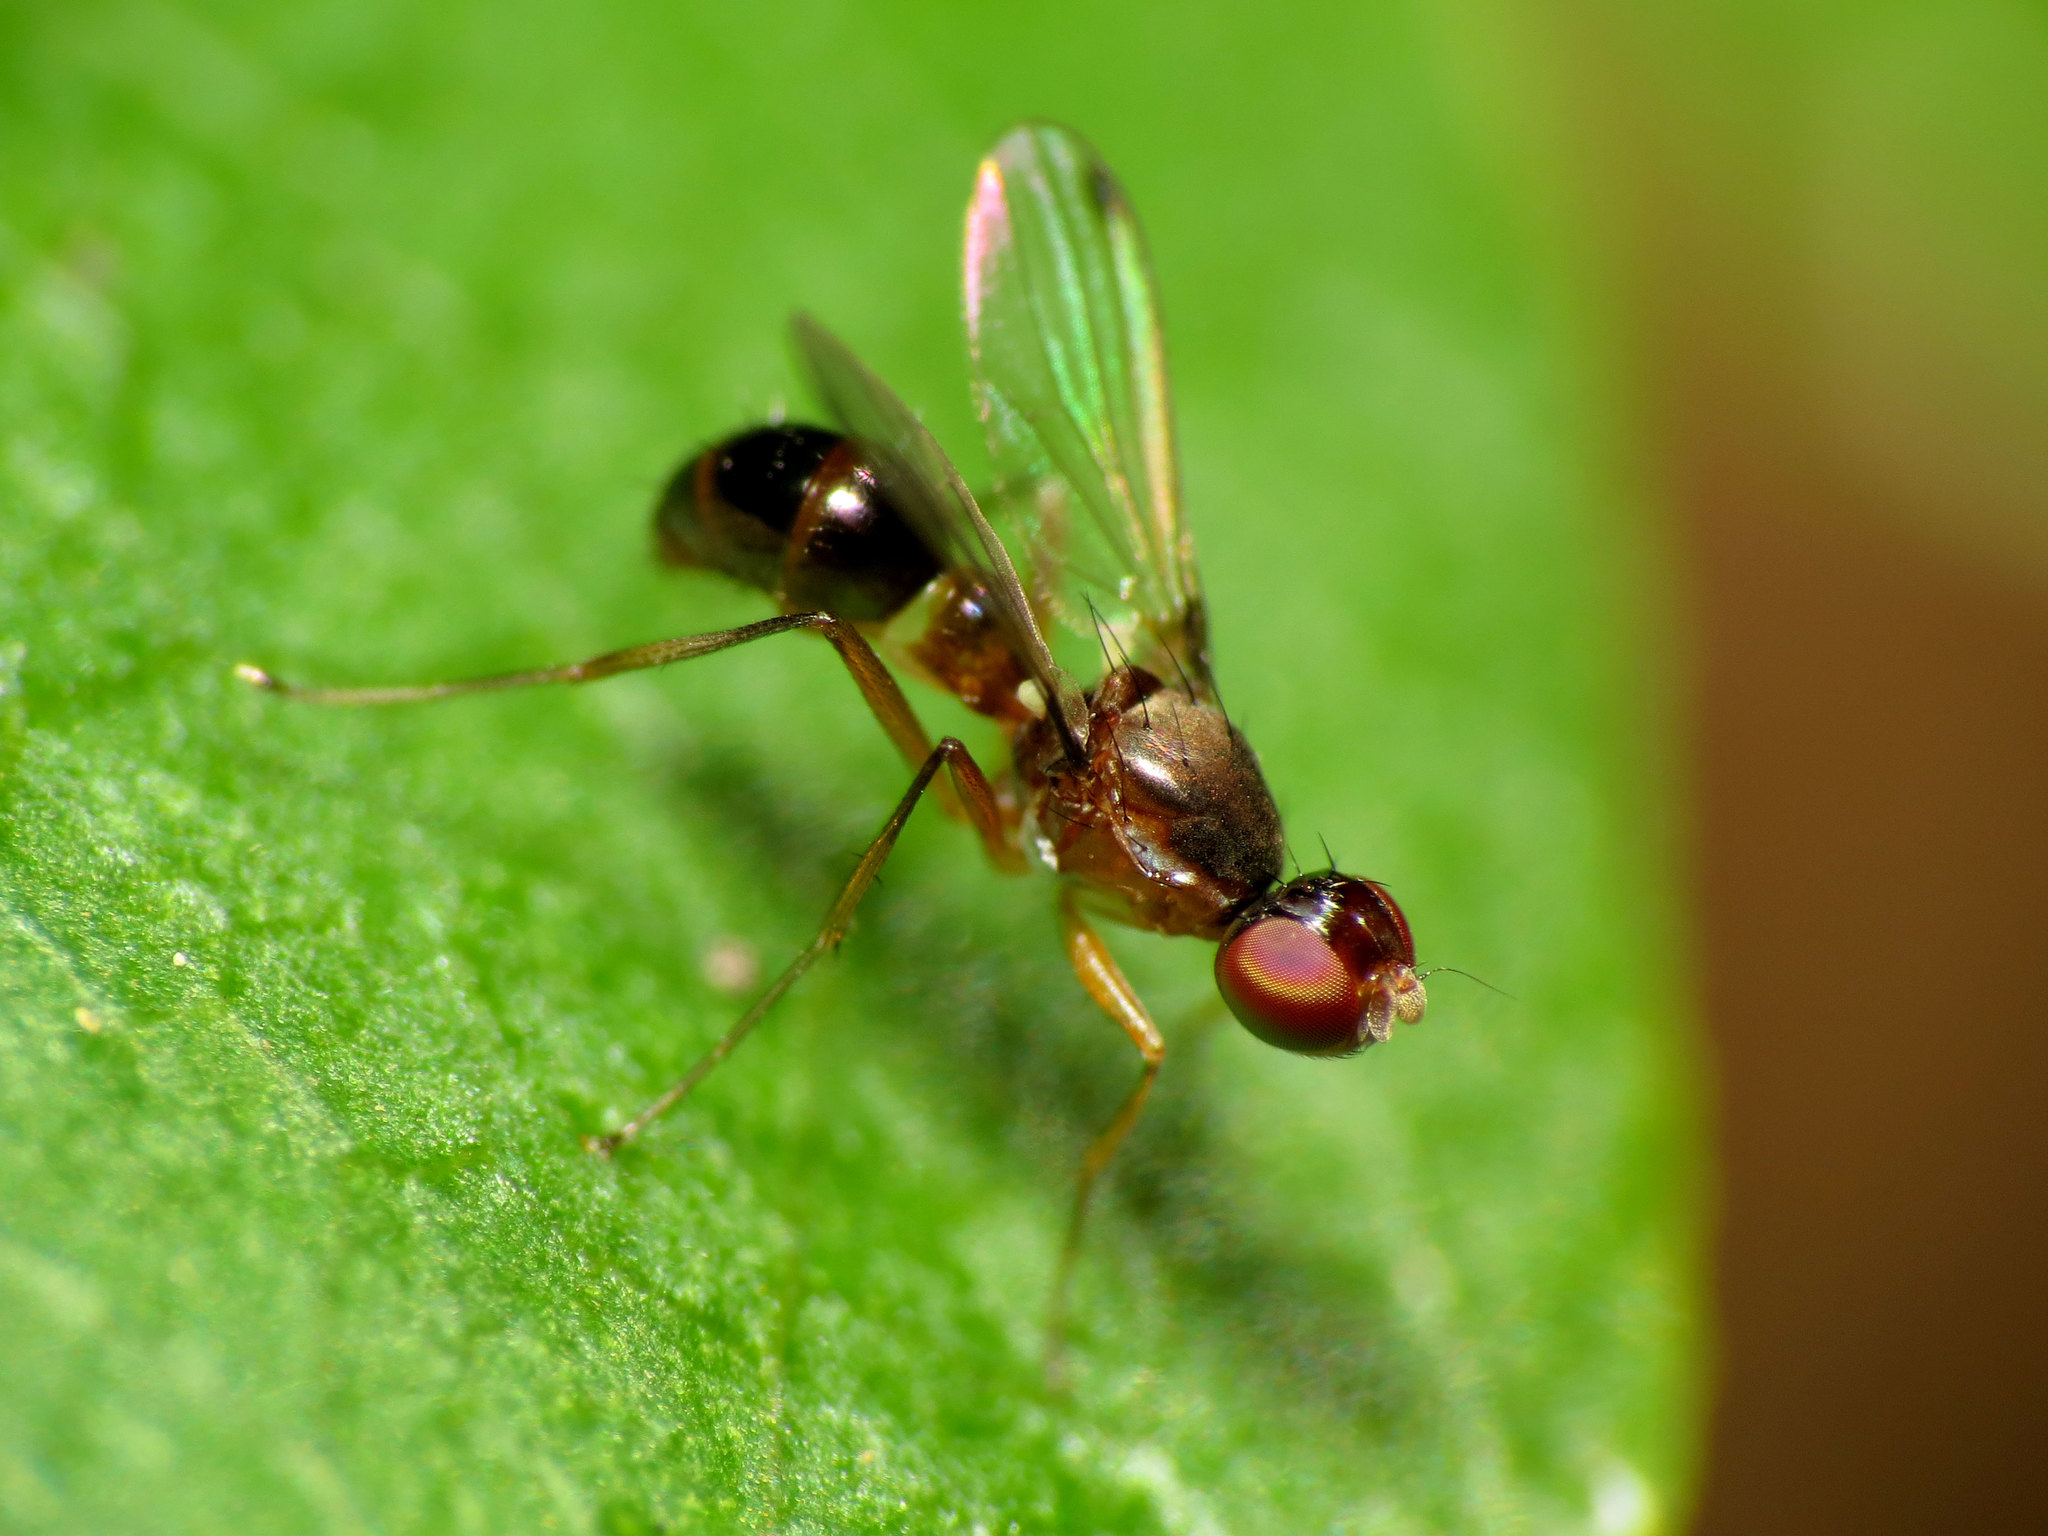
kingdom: Animalia
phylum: Arthropoda
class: Insecta
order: Diptera
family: Sepsidae
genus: Sepsis
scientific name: Sepsis vicaria
